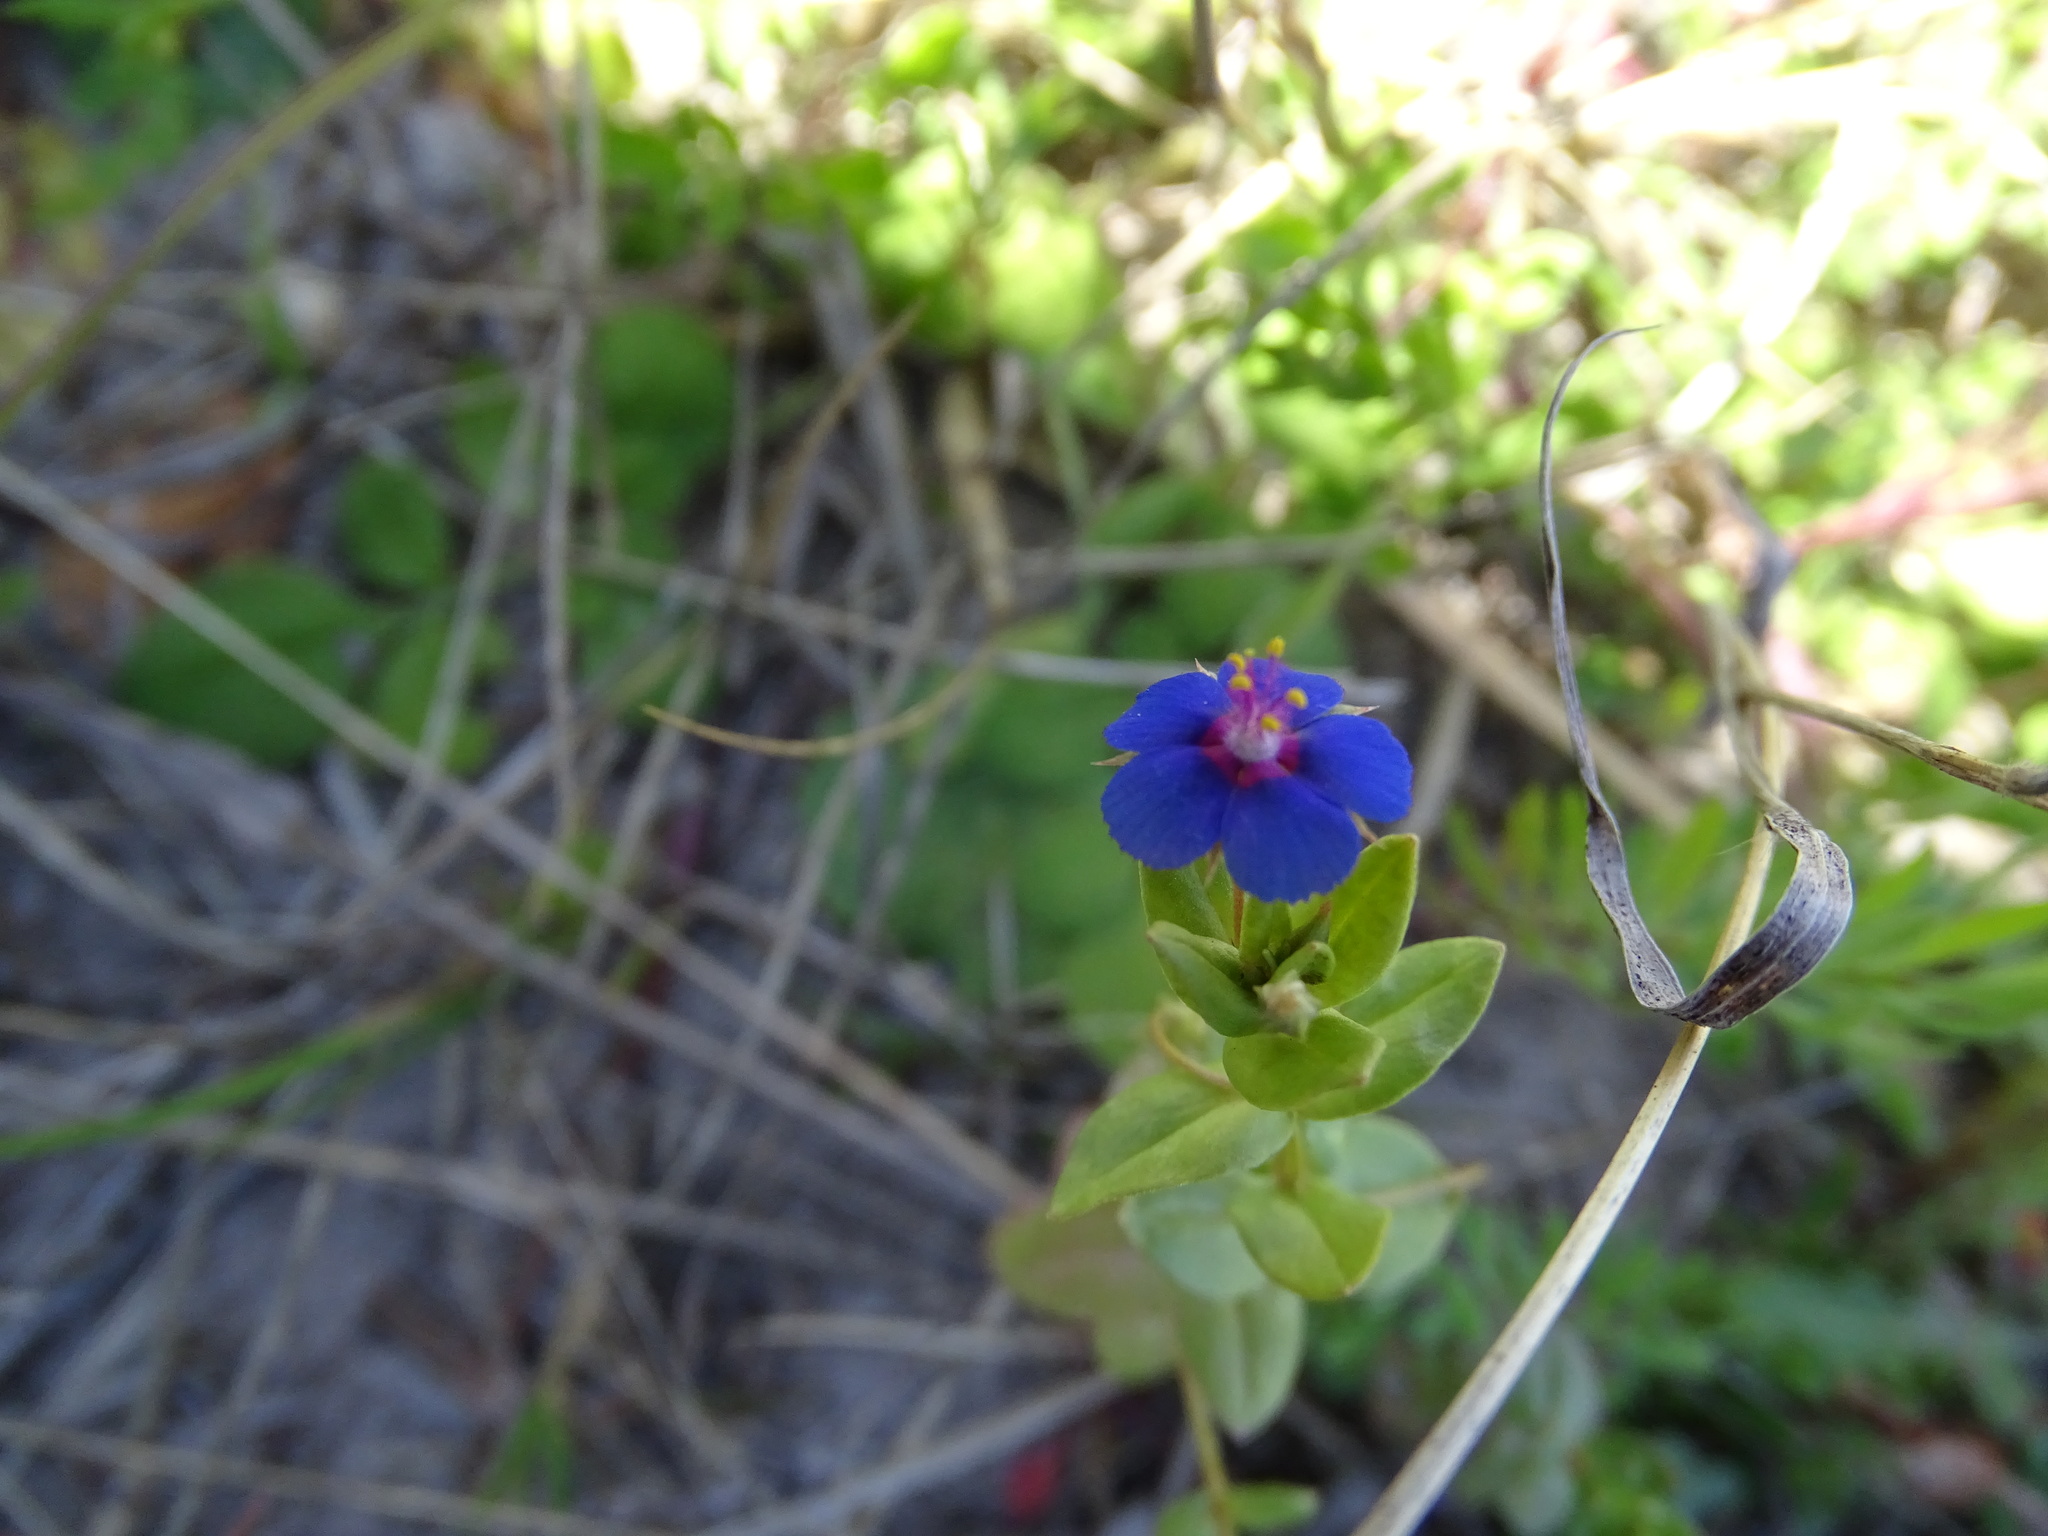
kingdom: Plantae
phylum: Tracheophyta
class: Magnoliopsida
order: Ericales
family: Primulaceae
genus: Lysimachia
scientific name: Lysimachia foemina
